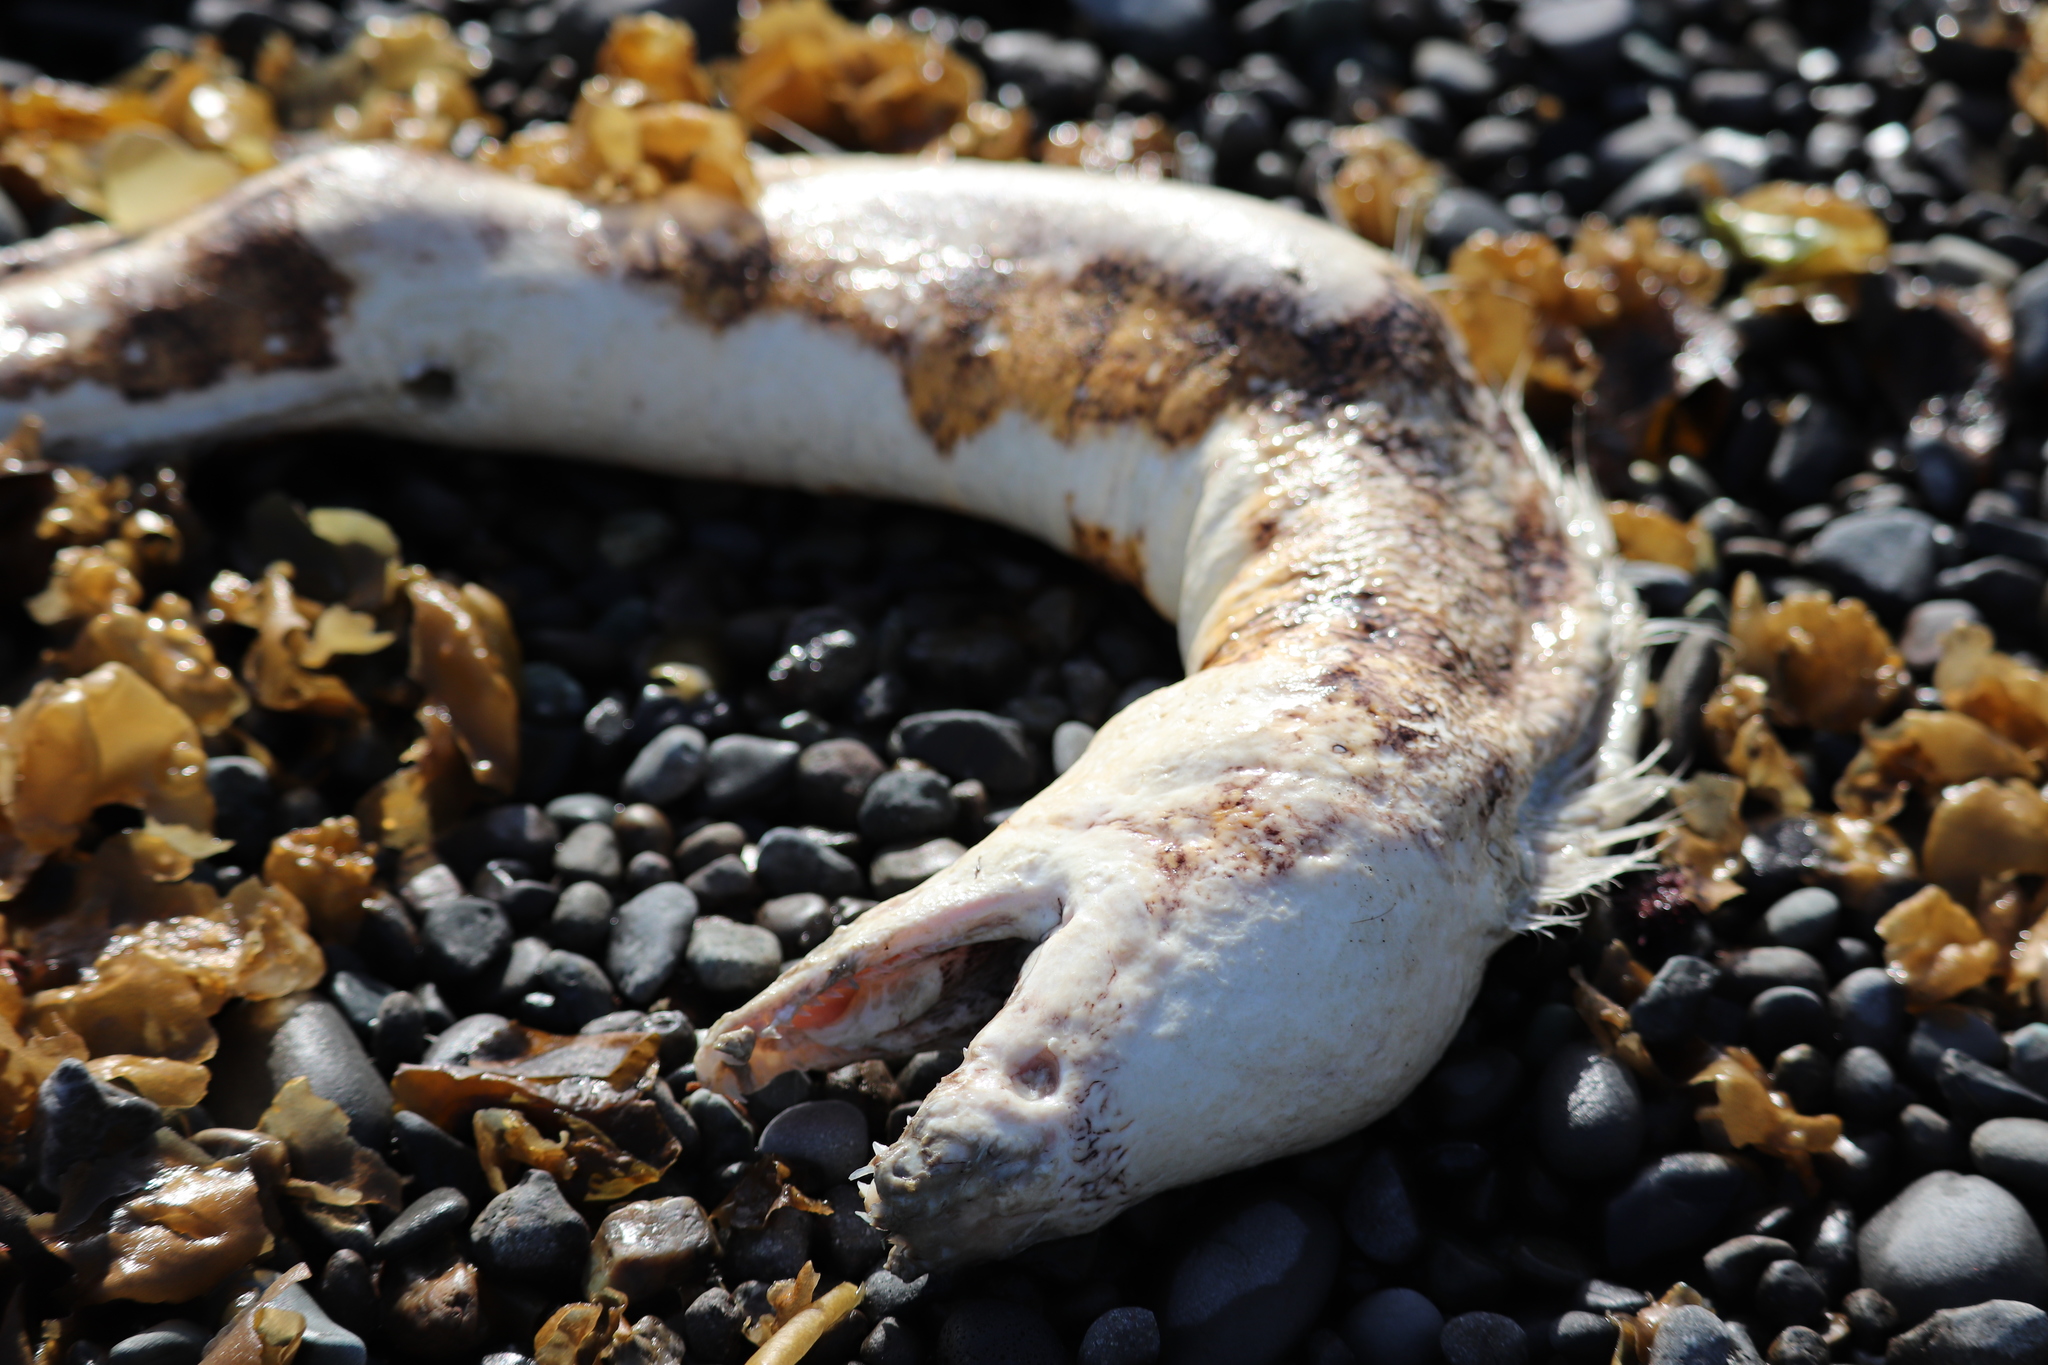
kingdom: Animalia
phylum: Chordata
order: Anguilliformes
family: Muraenidae
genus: Gymnothorax
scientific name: Gymnothorax kidako
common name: Kidako moray
